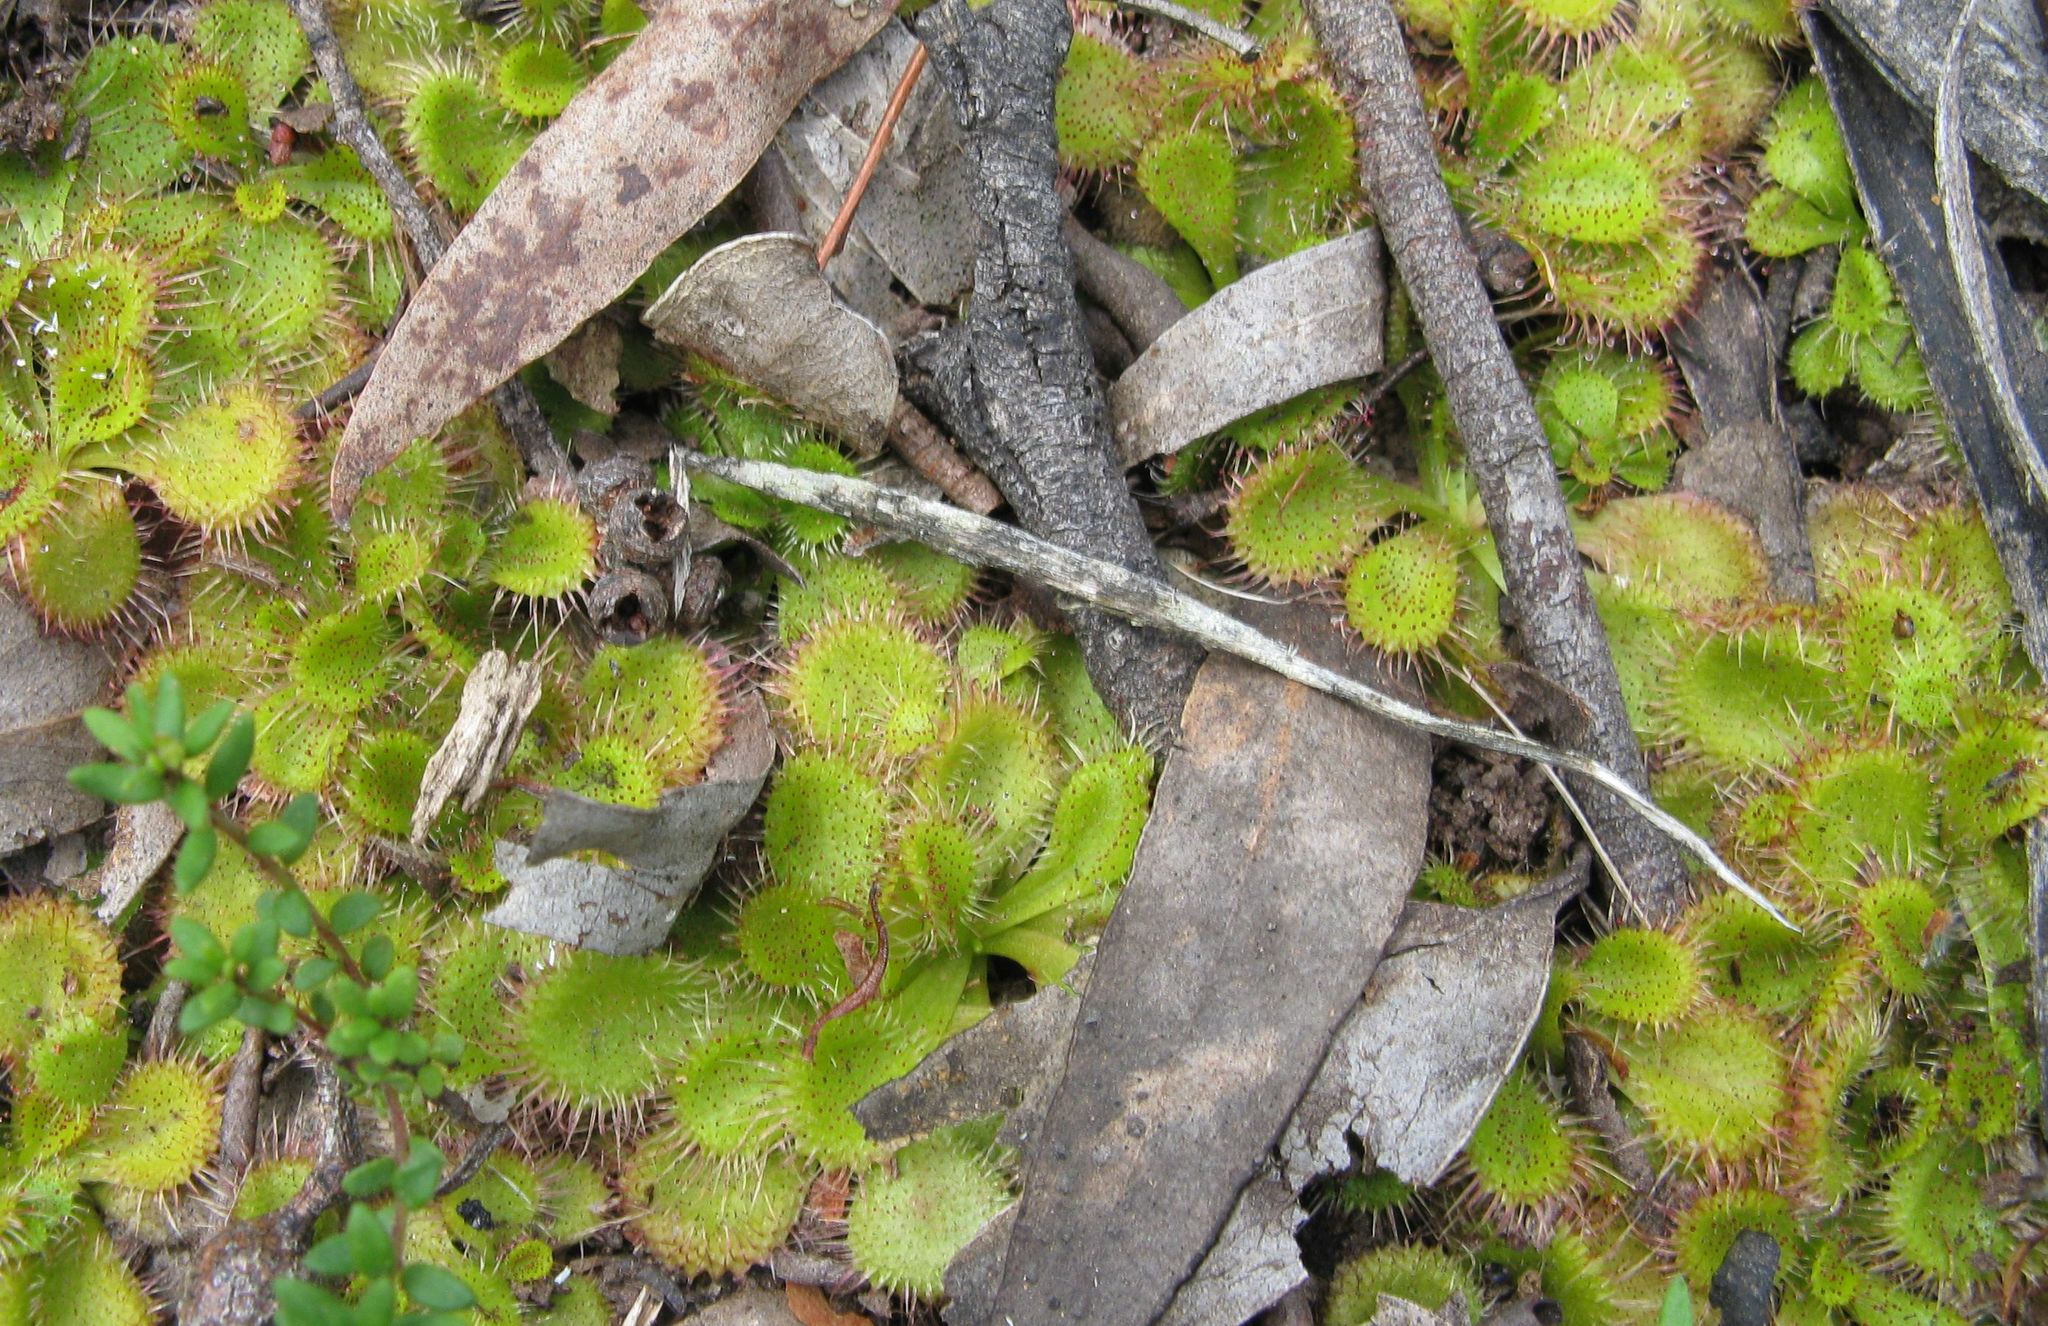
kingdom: Plantae
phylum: Tracheophyta
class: Magnoliopsida
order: Caryophyllales
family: Droseraceae
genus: Drosera
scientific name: Drosera aberrans
